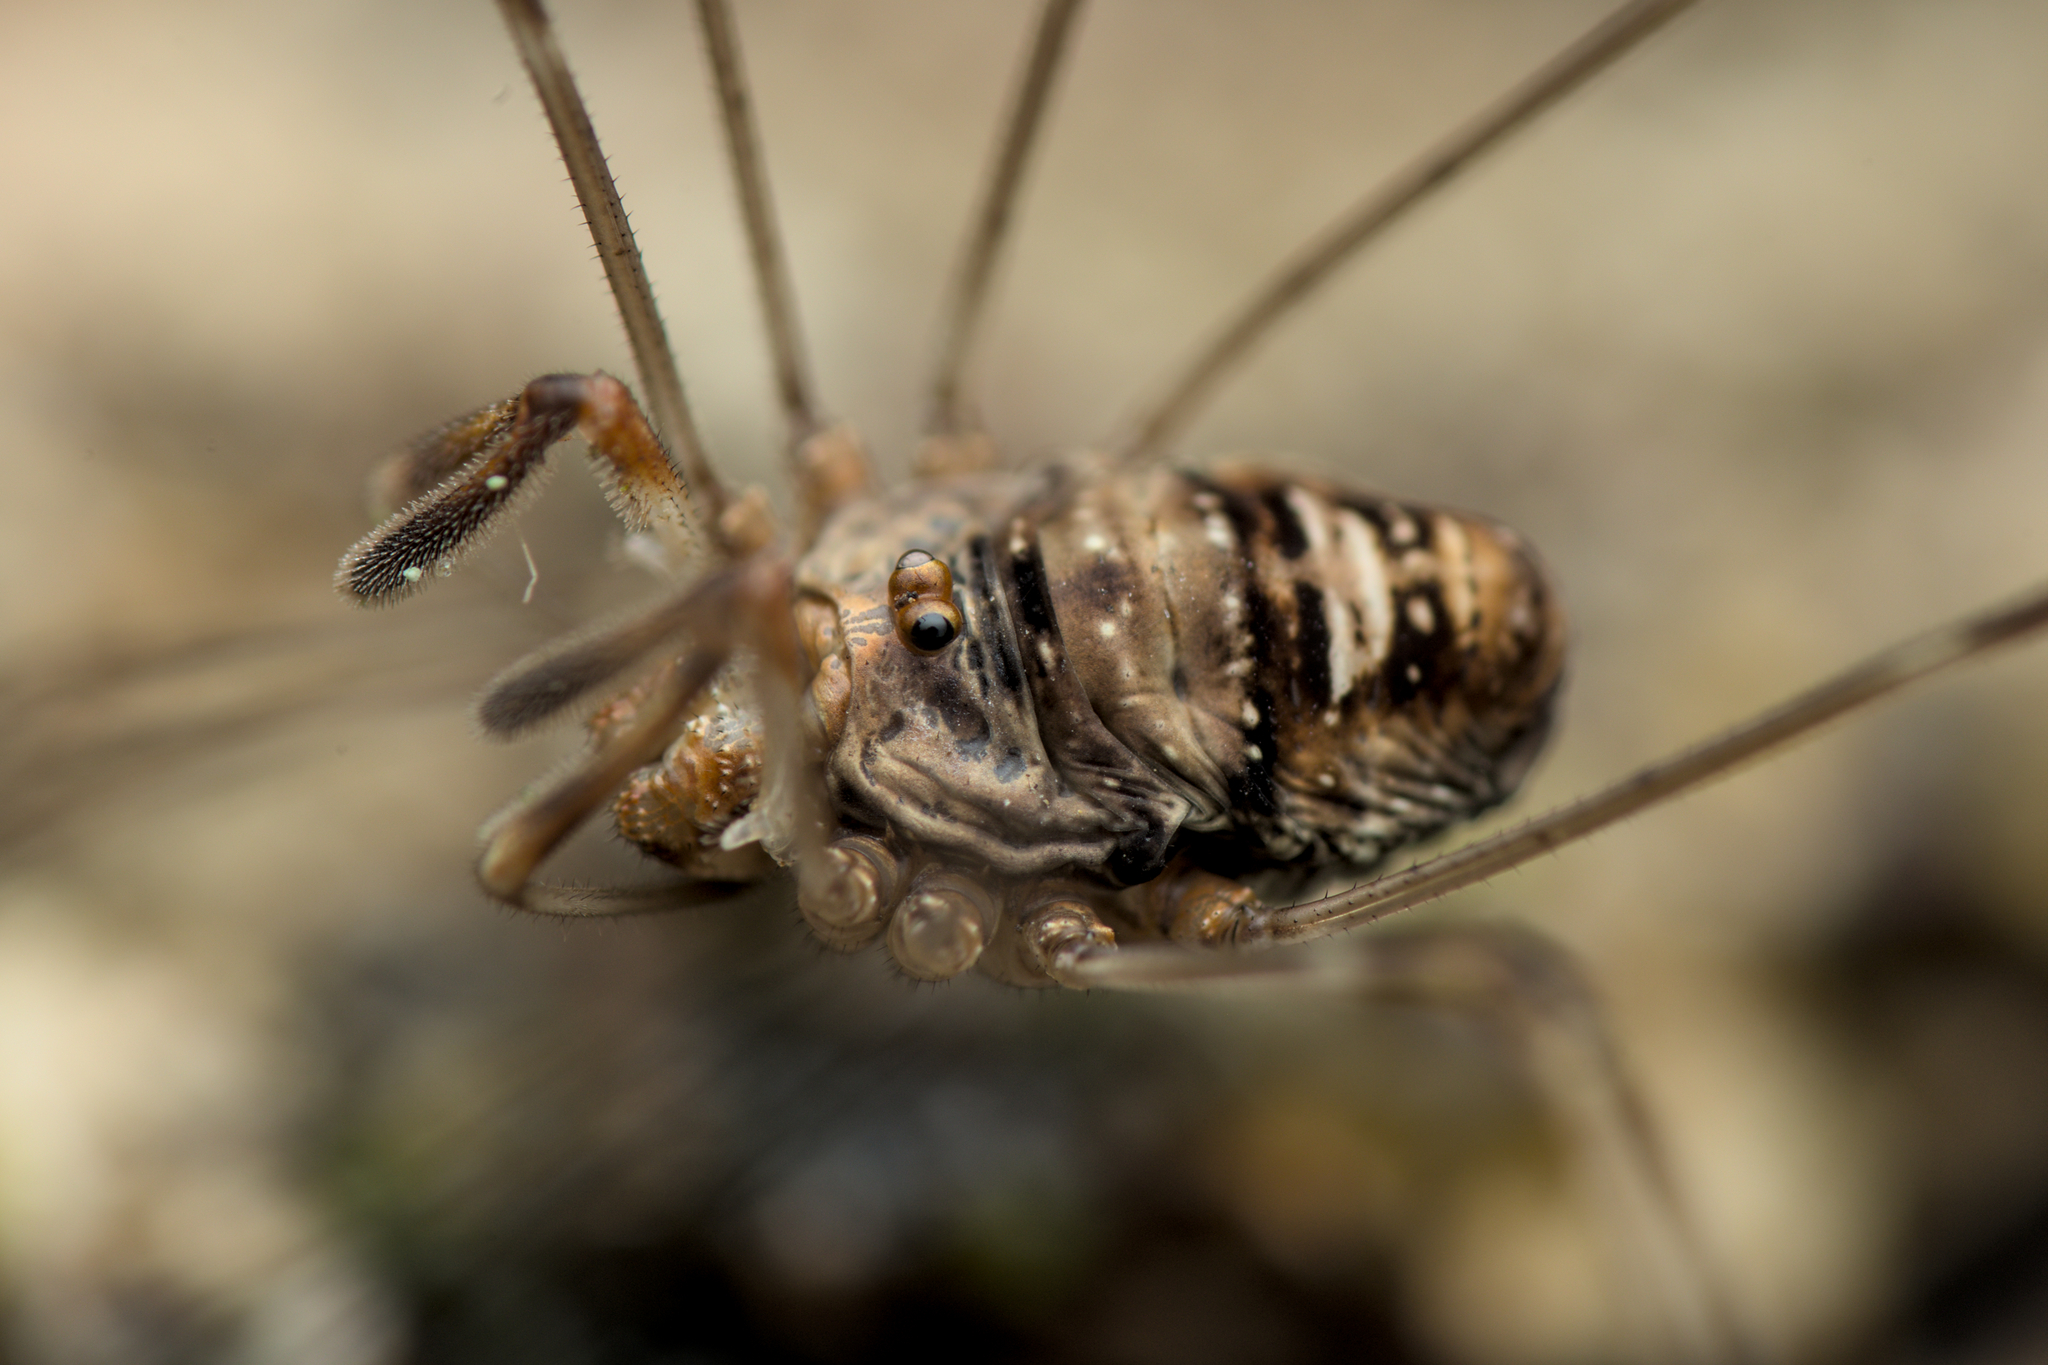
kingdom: Animalia
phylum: Arthropoda
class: Arachnida
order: Opiliones
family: Phalangiidae
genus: Dicranopalpus
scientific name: Dicranopalpus ramosus
